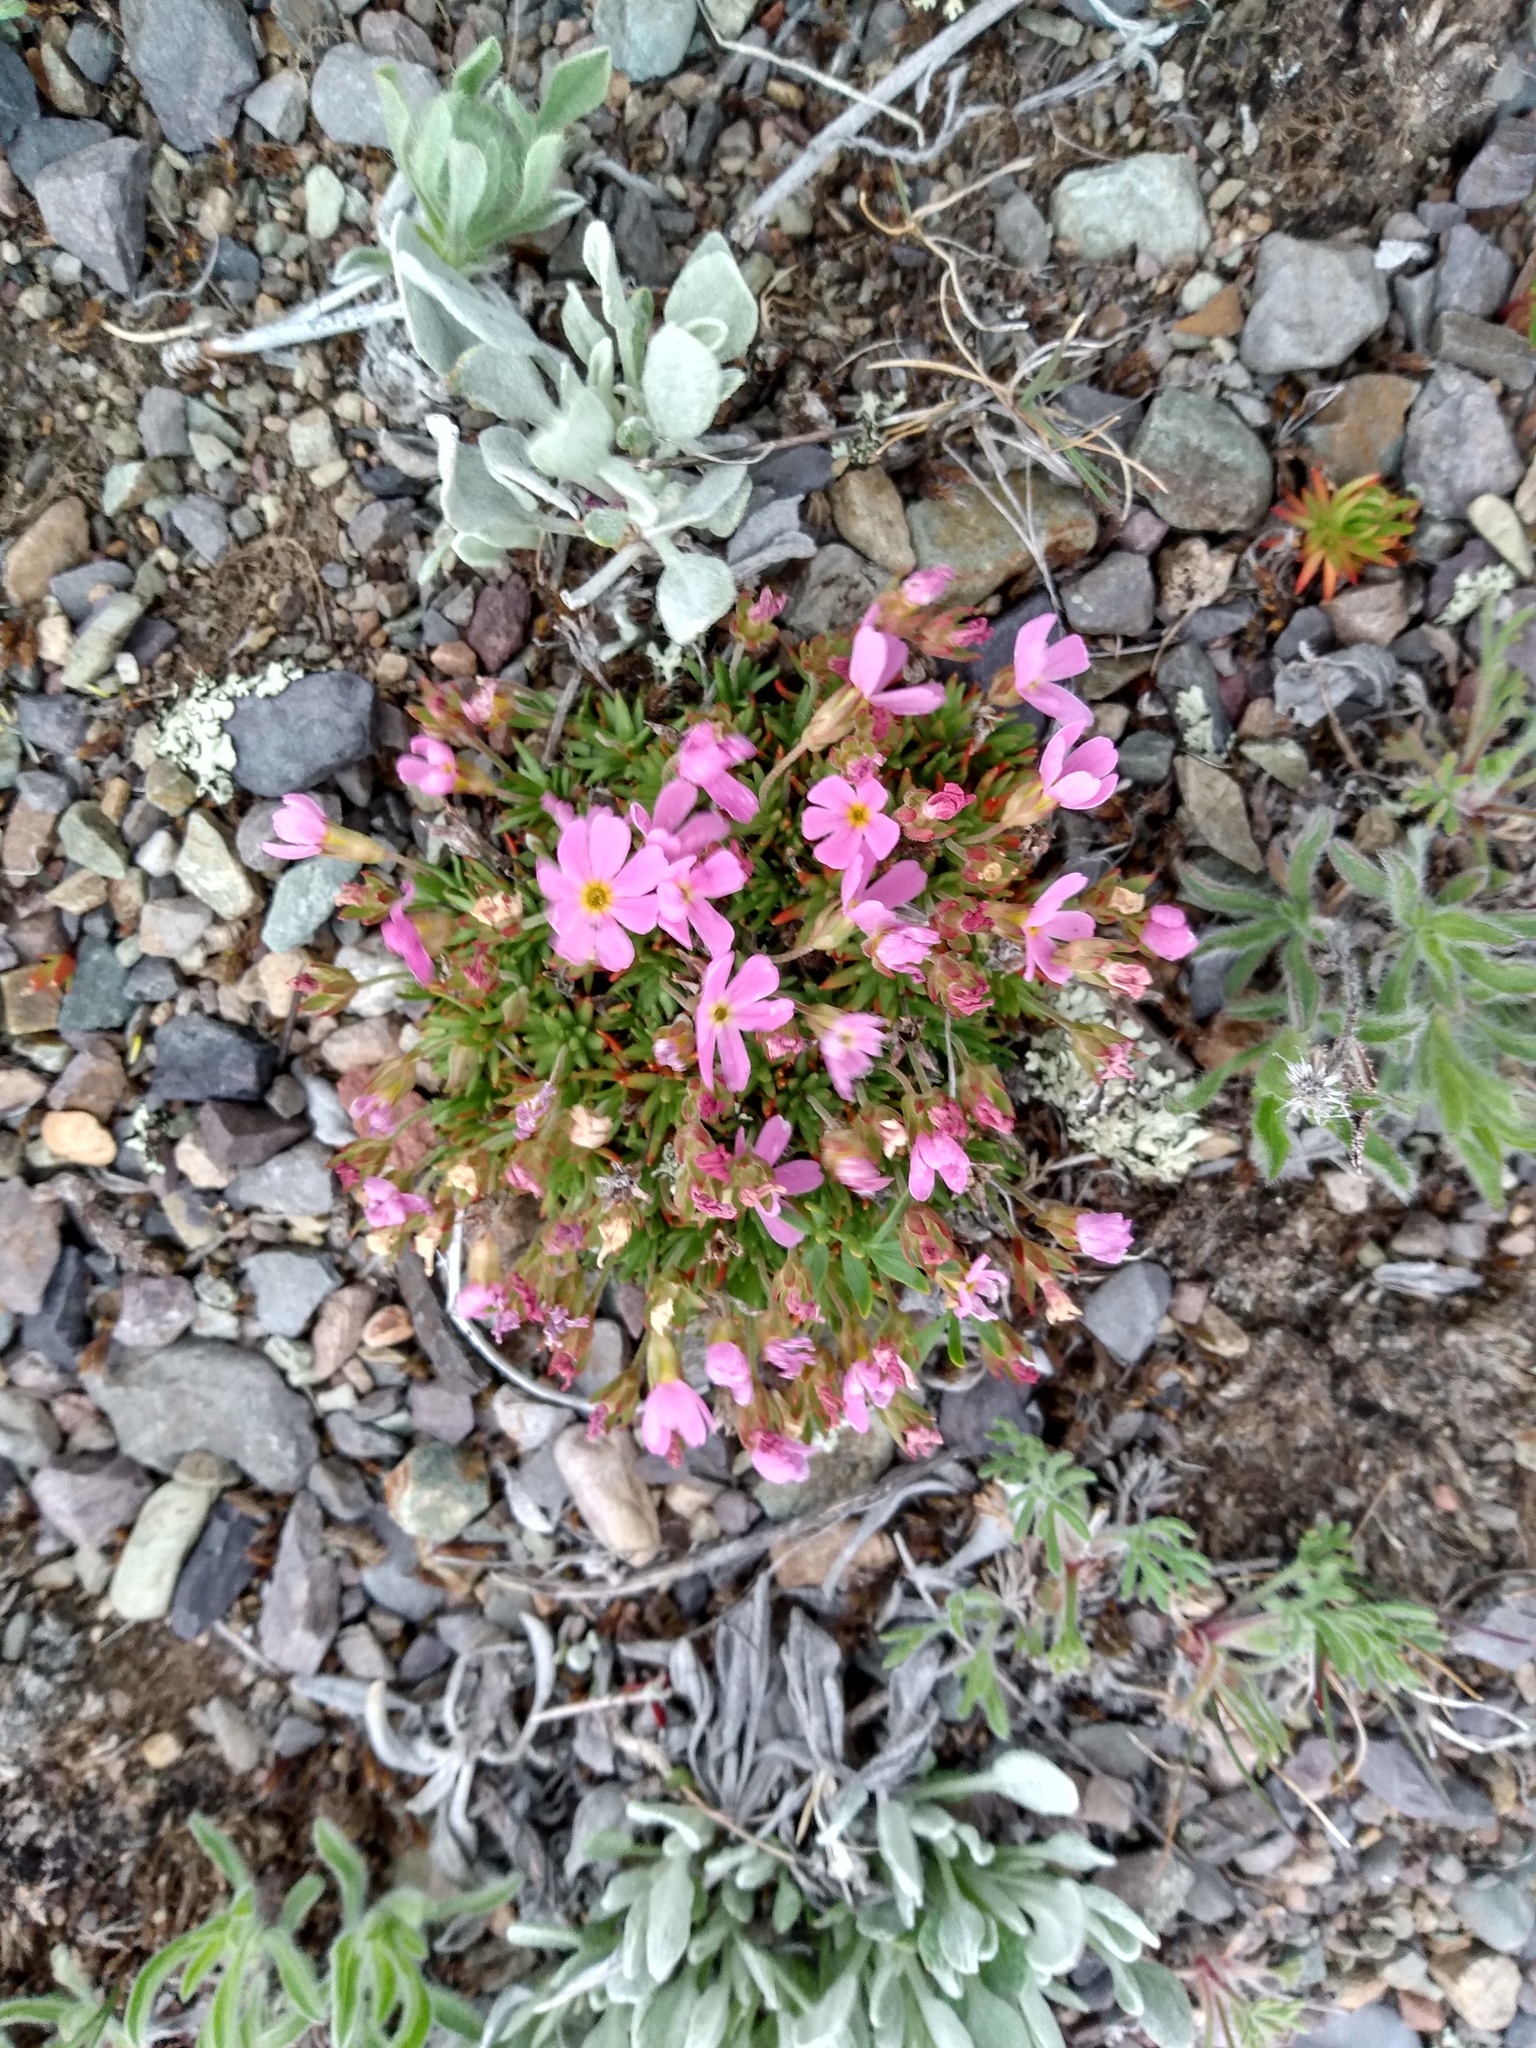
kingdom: Plantae
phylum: Tracheophyta
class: Magnoliopsida
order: Ericales
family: Primulaceae
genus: Androsace
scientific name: Androsace montana
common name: Rocky mountain dwarf-primrose
